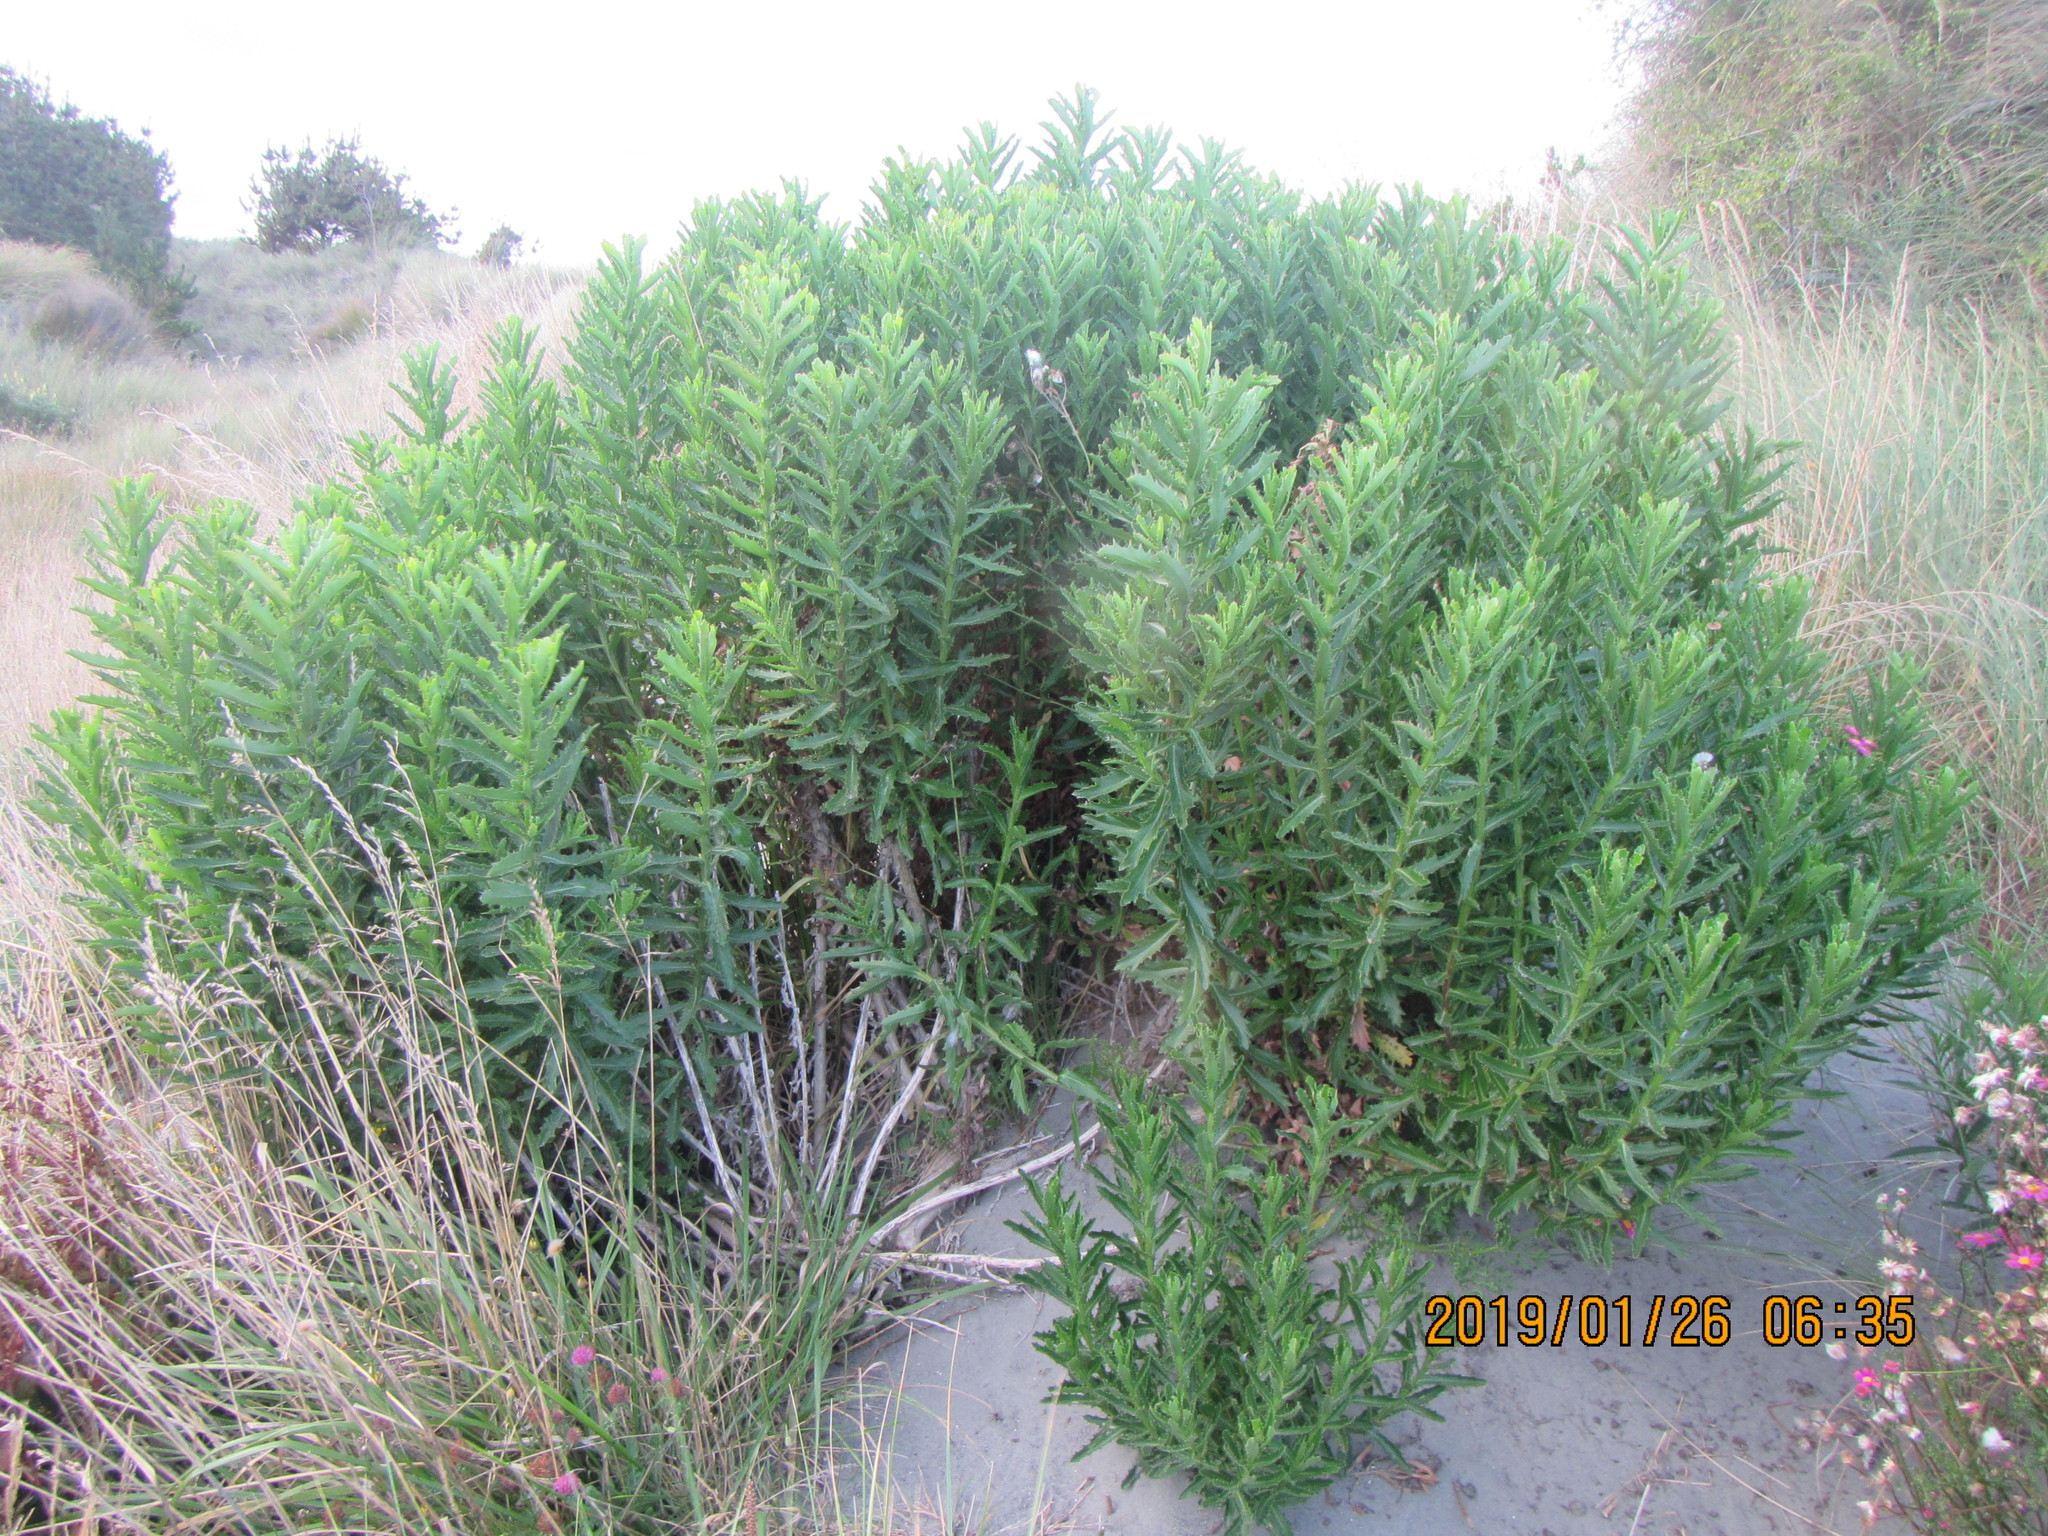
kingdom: Plantae
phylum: Tracheophyta
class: Magnoliopsida
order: Asterales
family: Asteraceae
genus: Senecio
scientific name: Senecio glastifolius
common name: Woad-leaved ragwort
